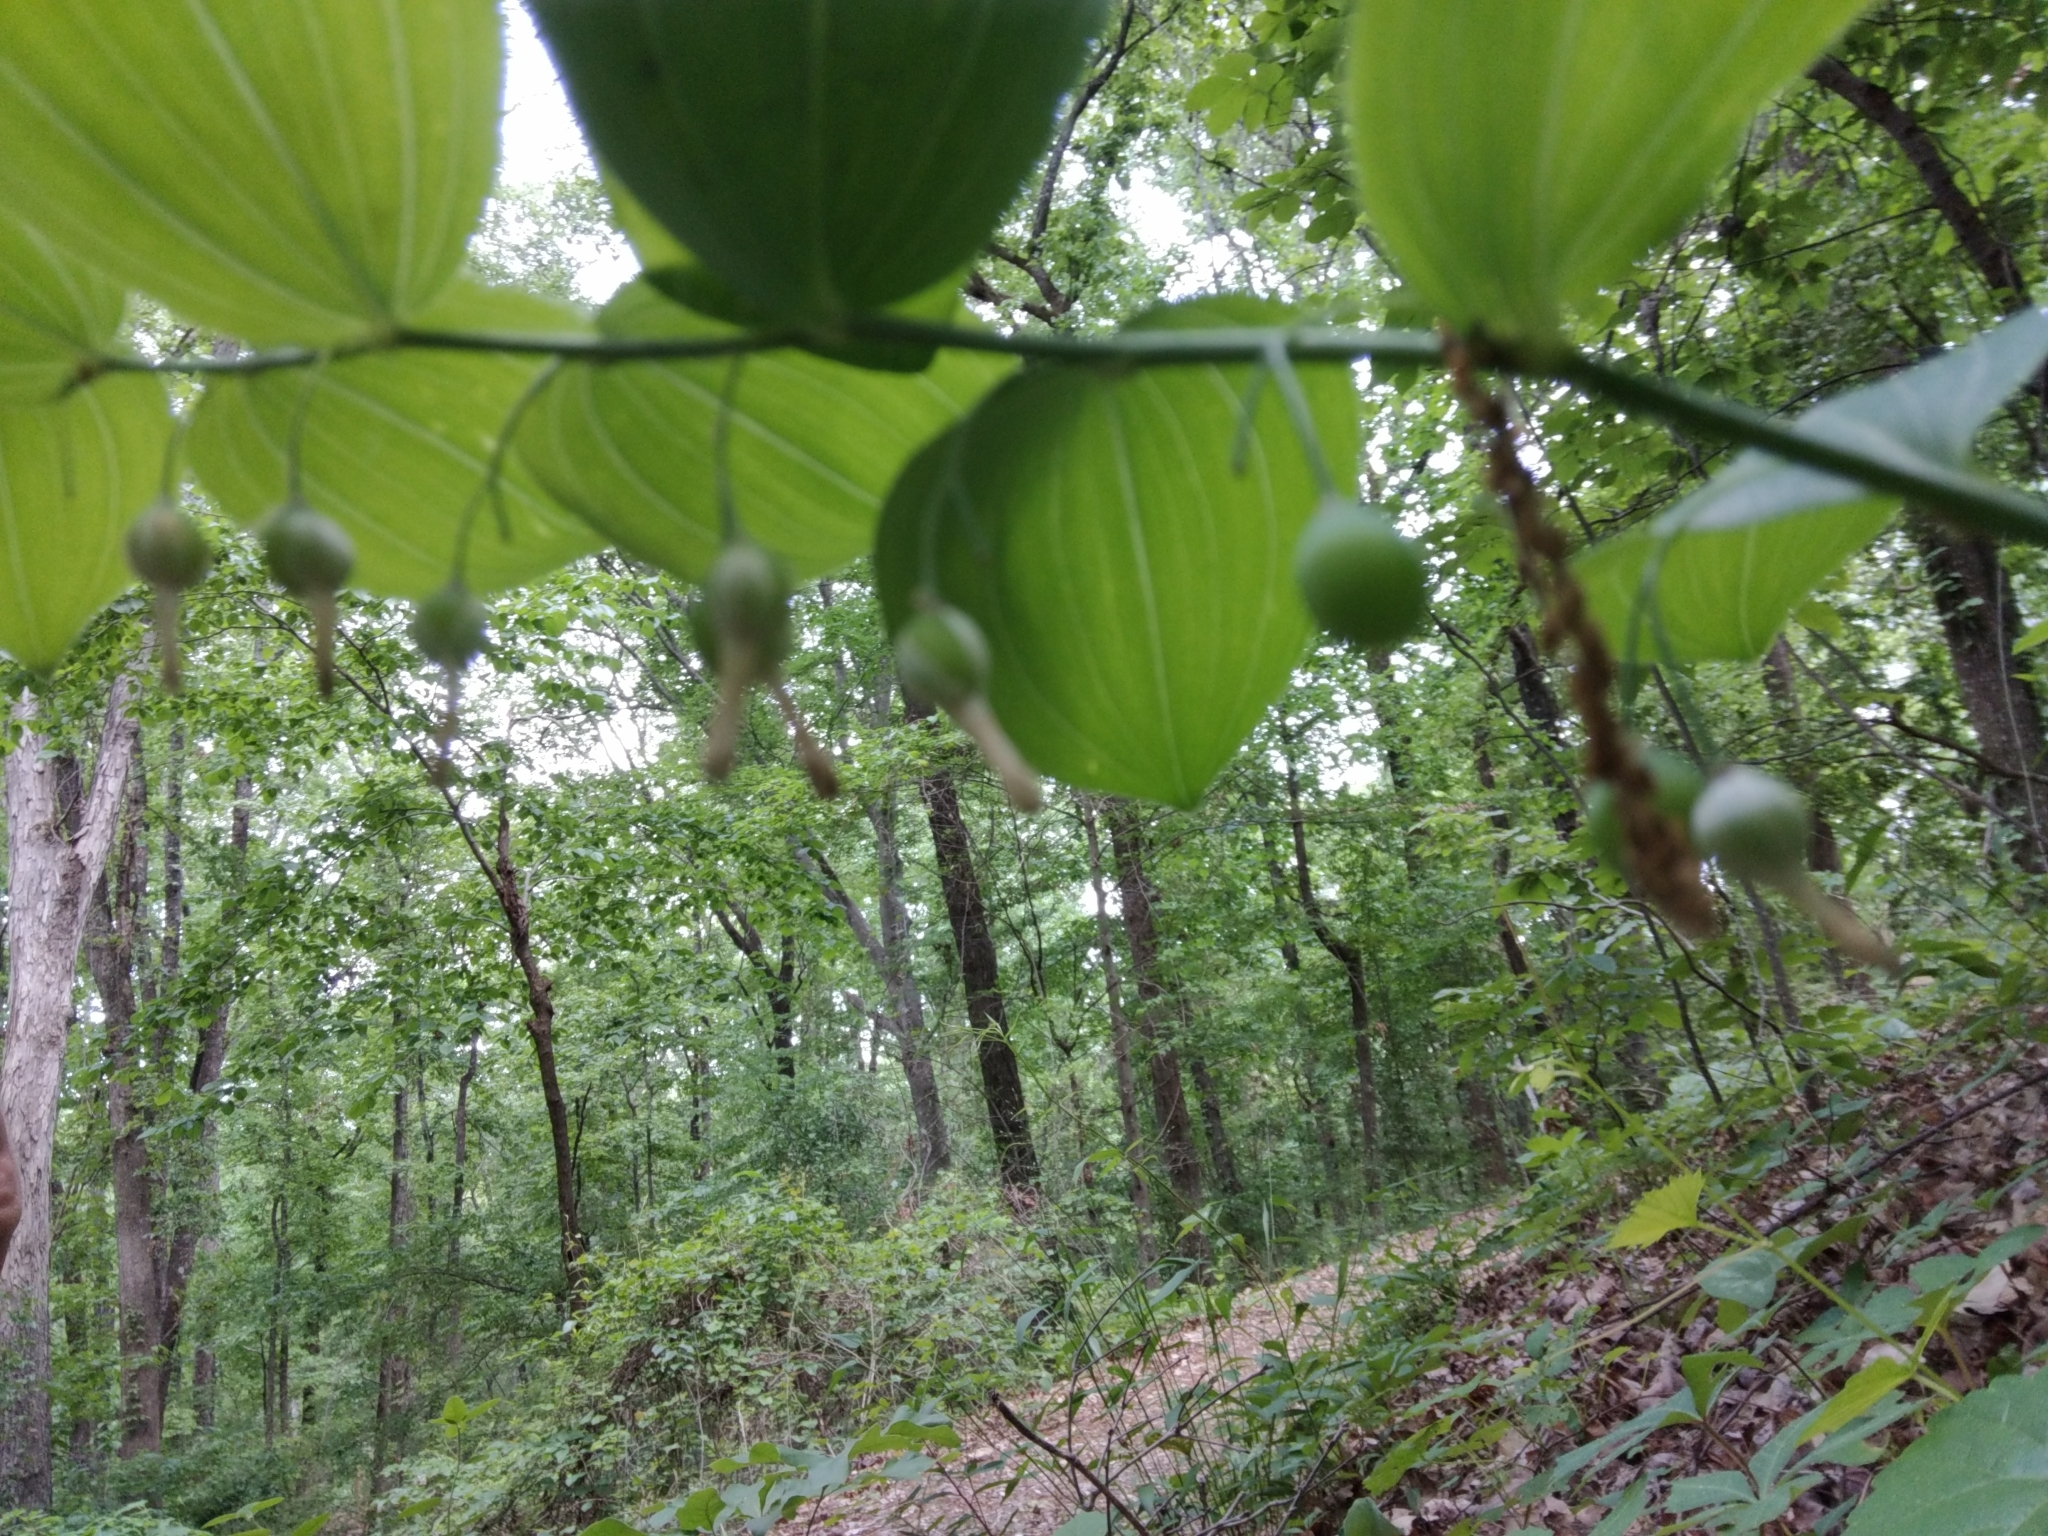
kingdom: Plantae
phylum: Tracheophyta
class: Liliopsida
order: Asparagales
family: Asparagaceae
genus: Polygonatum
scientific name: Polygonatum biflorum
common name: American solomon's-seal
